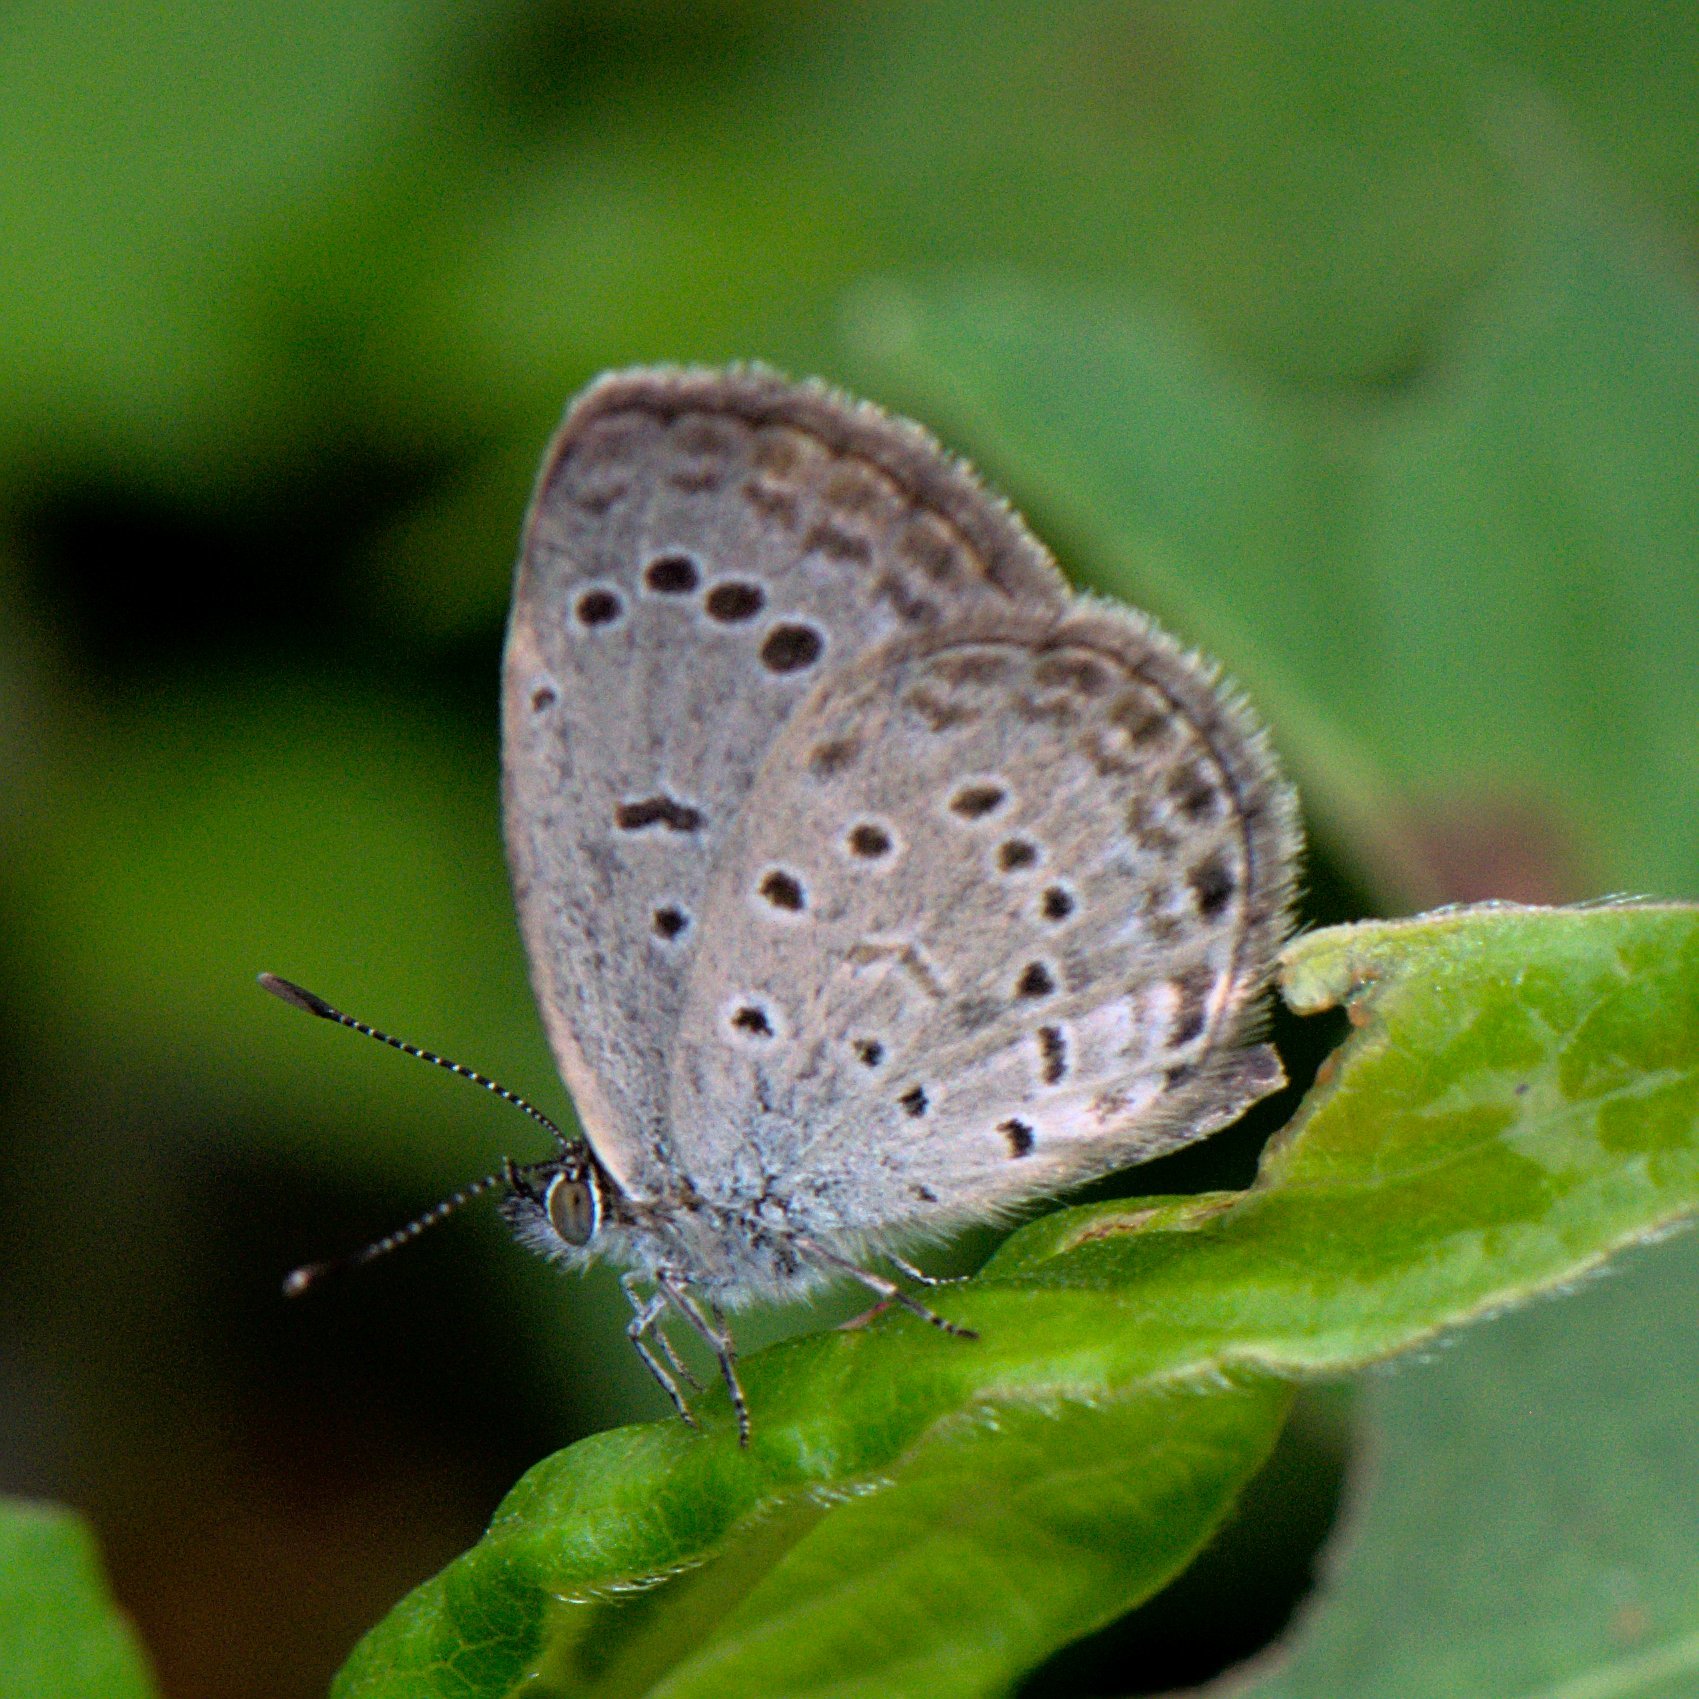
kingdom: Animalia
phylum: Arthropoda
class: Insecta
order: Lepidoptera
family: Lycaenidae
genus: Pseudozizeeria
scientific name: Pseudozizeeria maha
